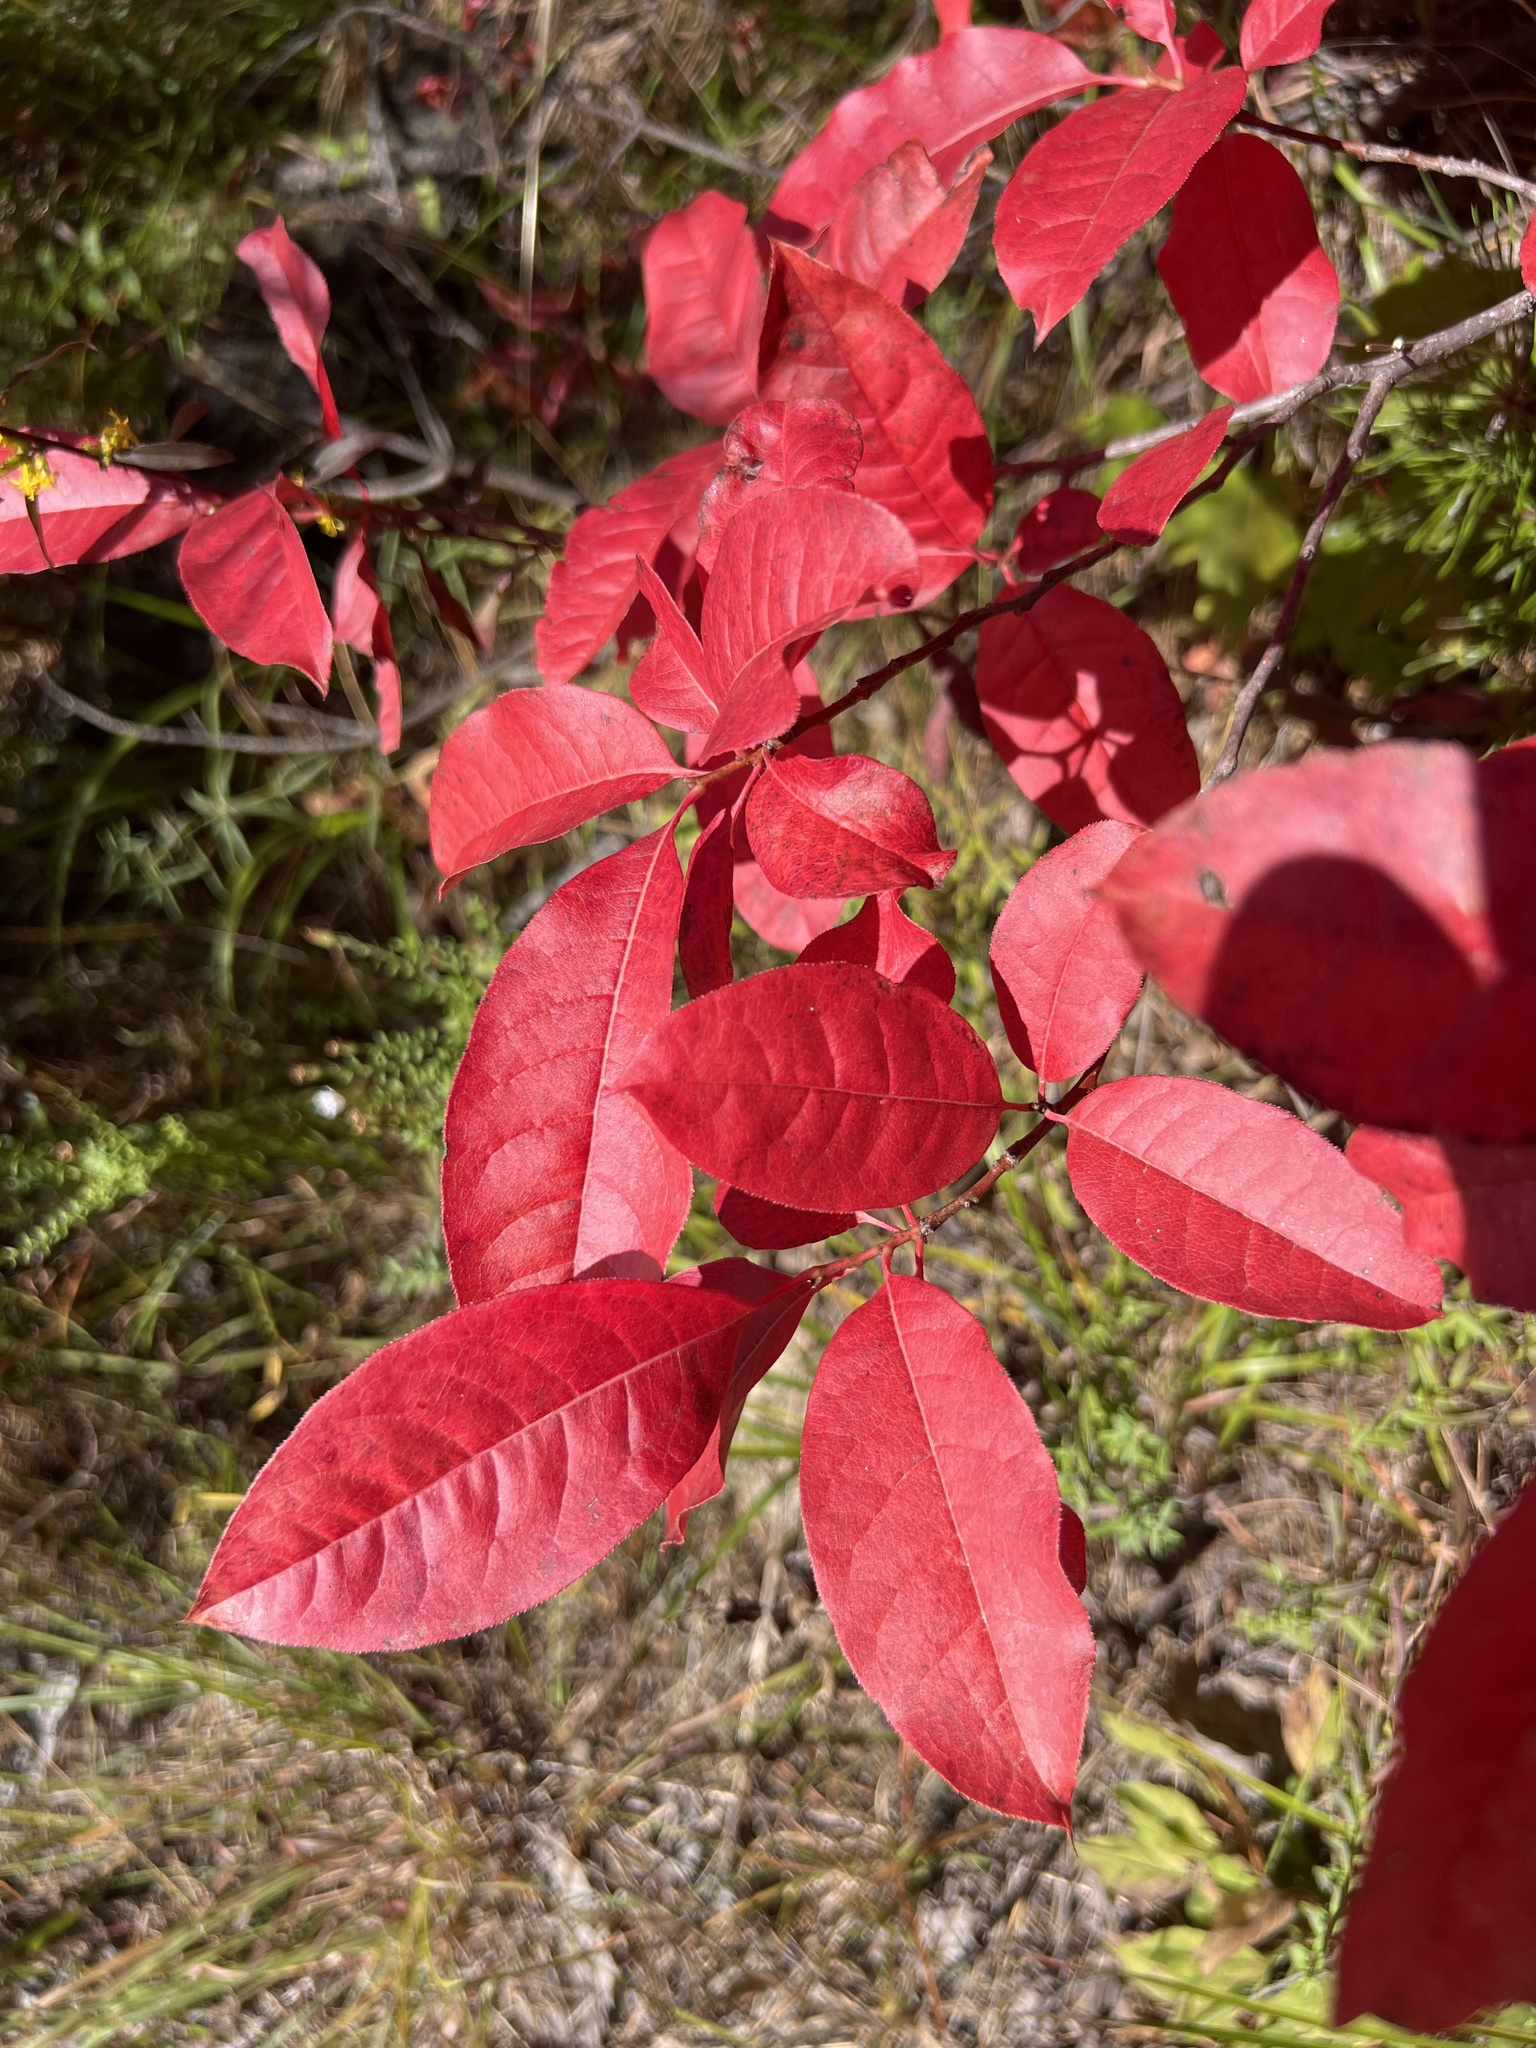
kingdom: Plantae
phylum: Tracheophyta
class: Magnoliopsida
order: Ericales
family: Ericaceae
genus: Oxydendrum
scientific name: Oxydendrum arboreum
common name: Sourwood
